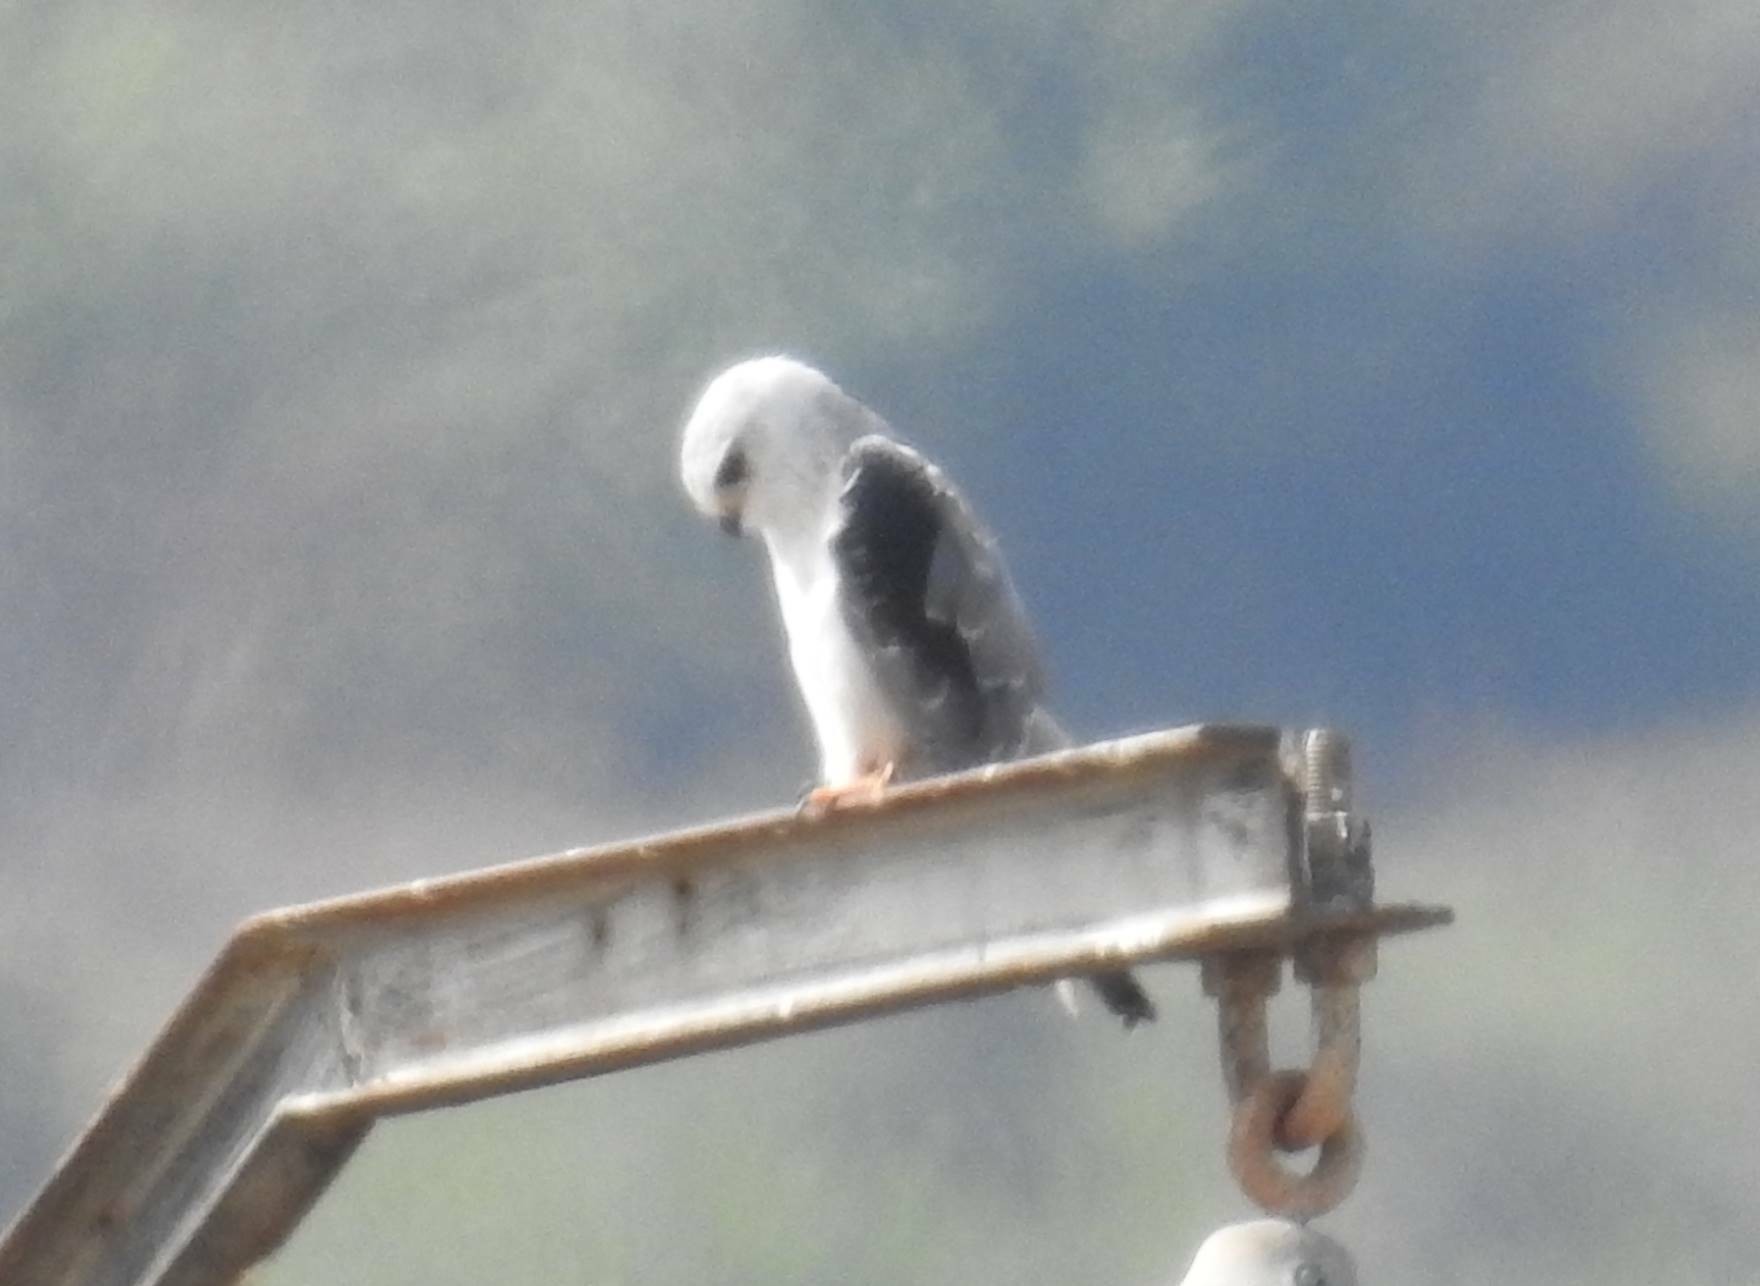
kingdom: Animalia
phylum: Chordata
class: Aves
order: Accipitriformes
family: Accipitridae
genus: Elanus
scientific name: Elanus caeruleus
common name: Black-winged kite
